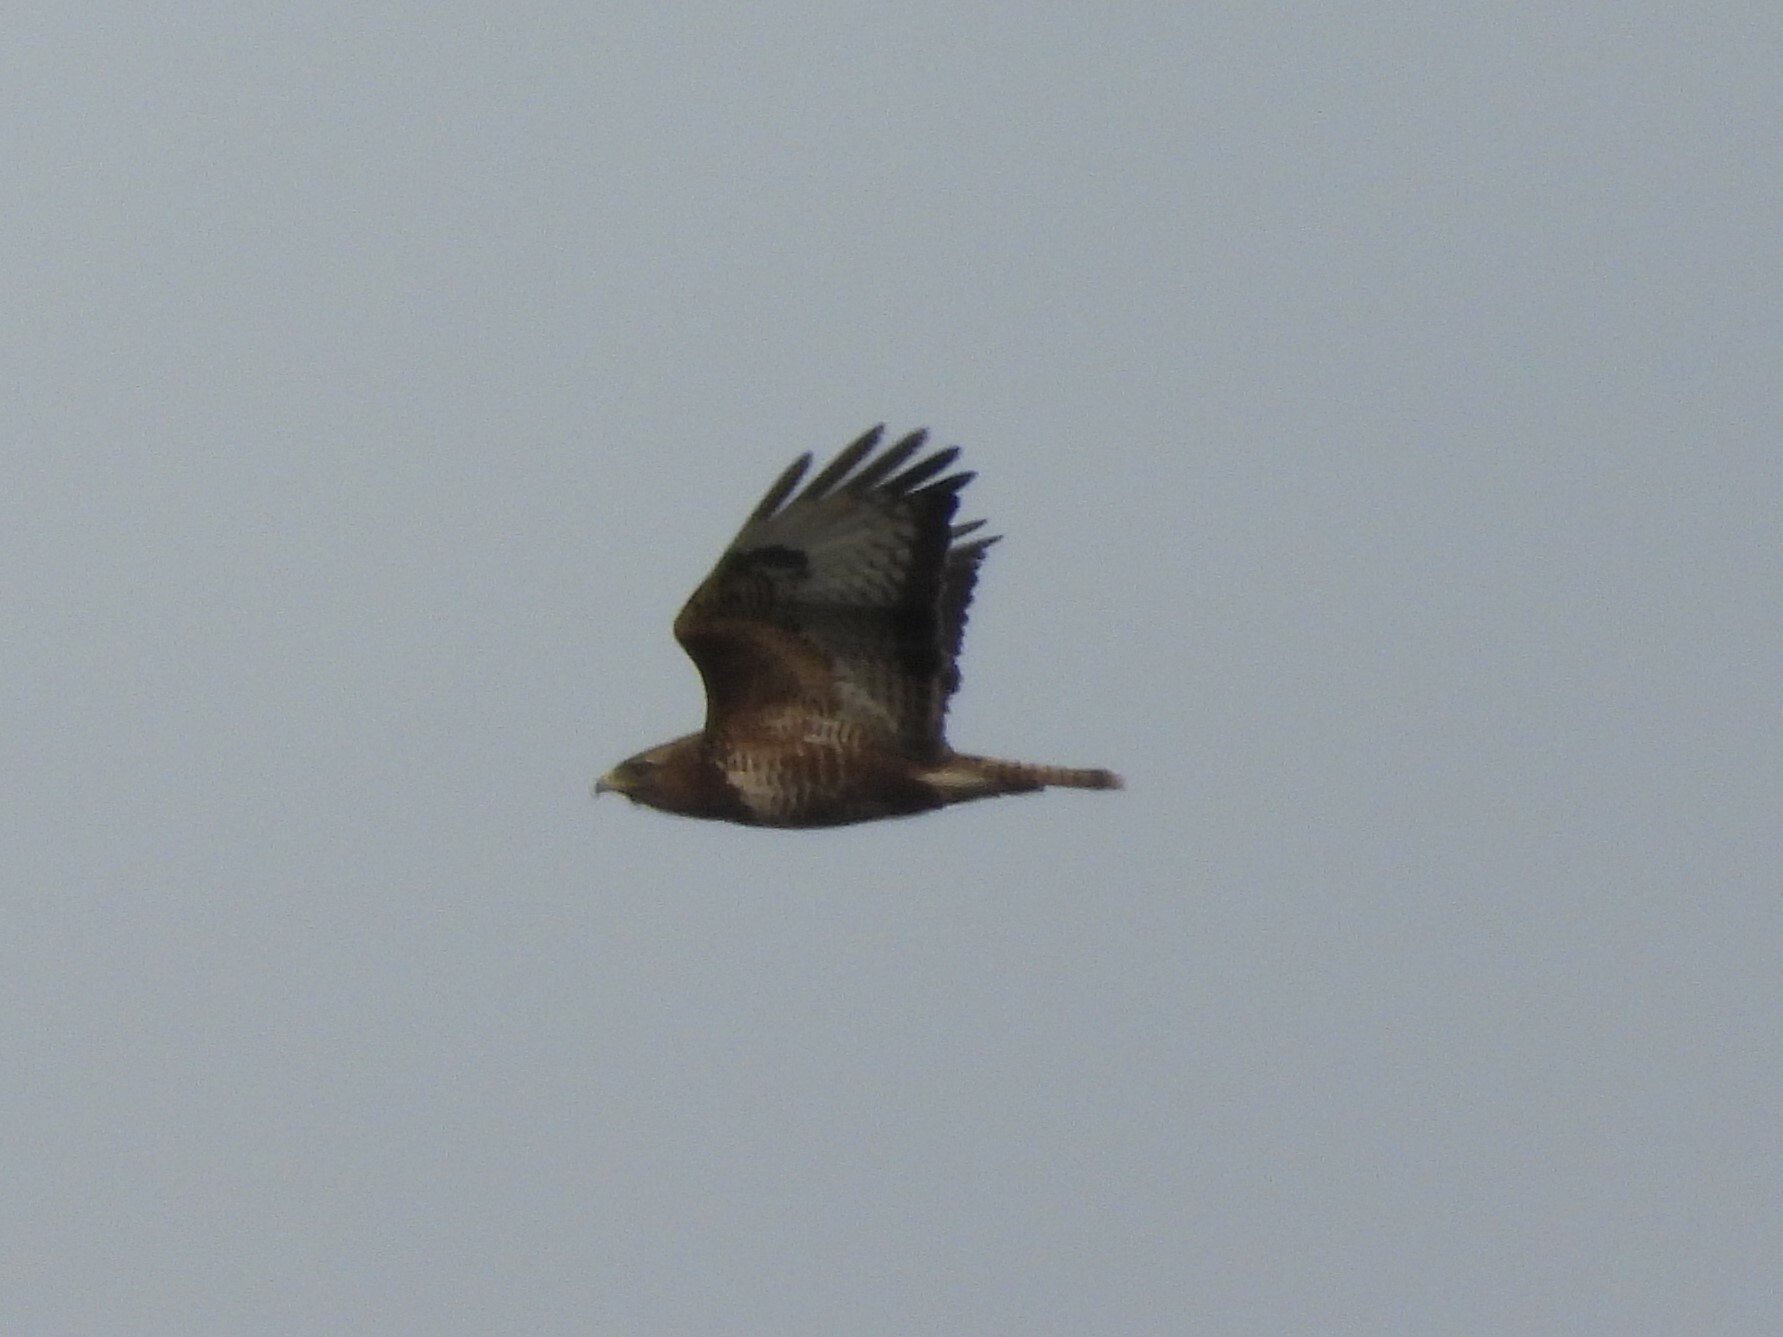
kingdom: Animalia
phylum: Chordata
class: Aves
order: Accipitriformes
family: Accipitridae
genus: Buteo
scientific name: Buteo buteo
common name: Common buzzard
